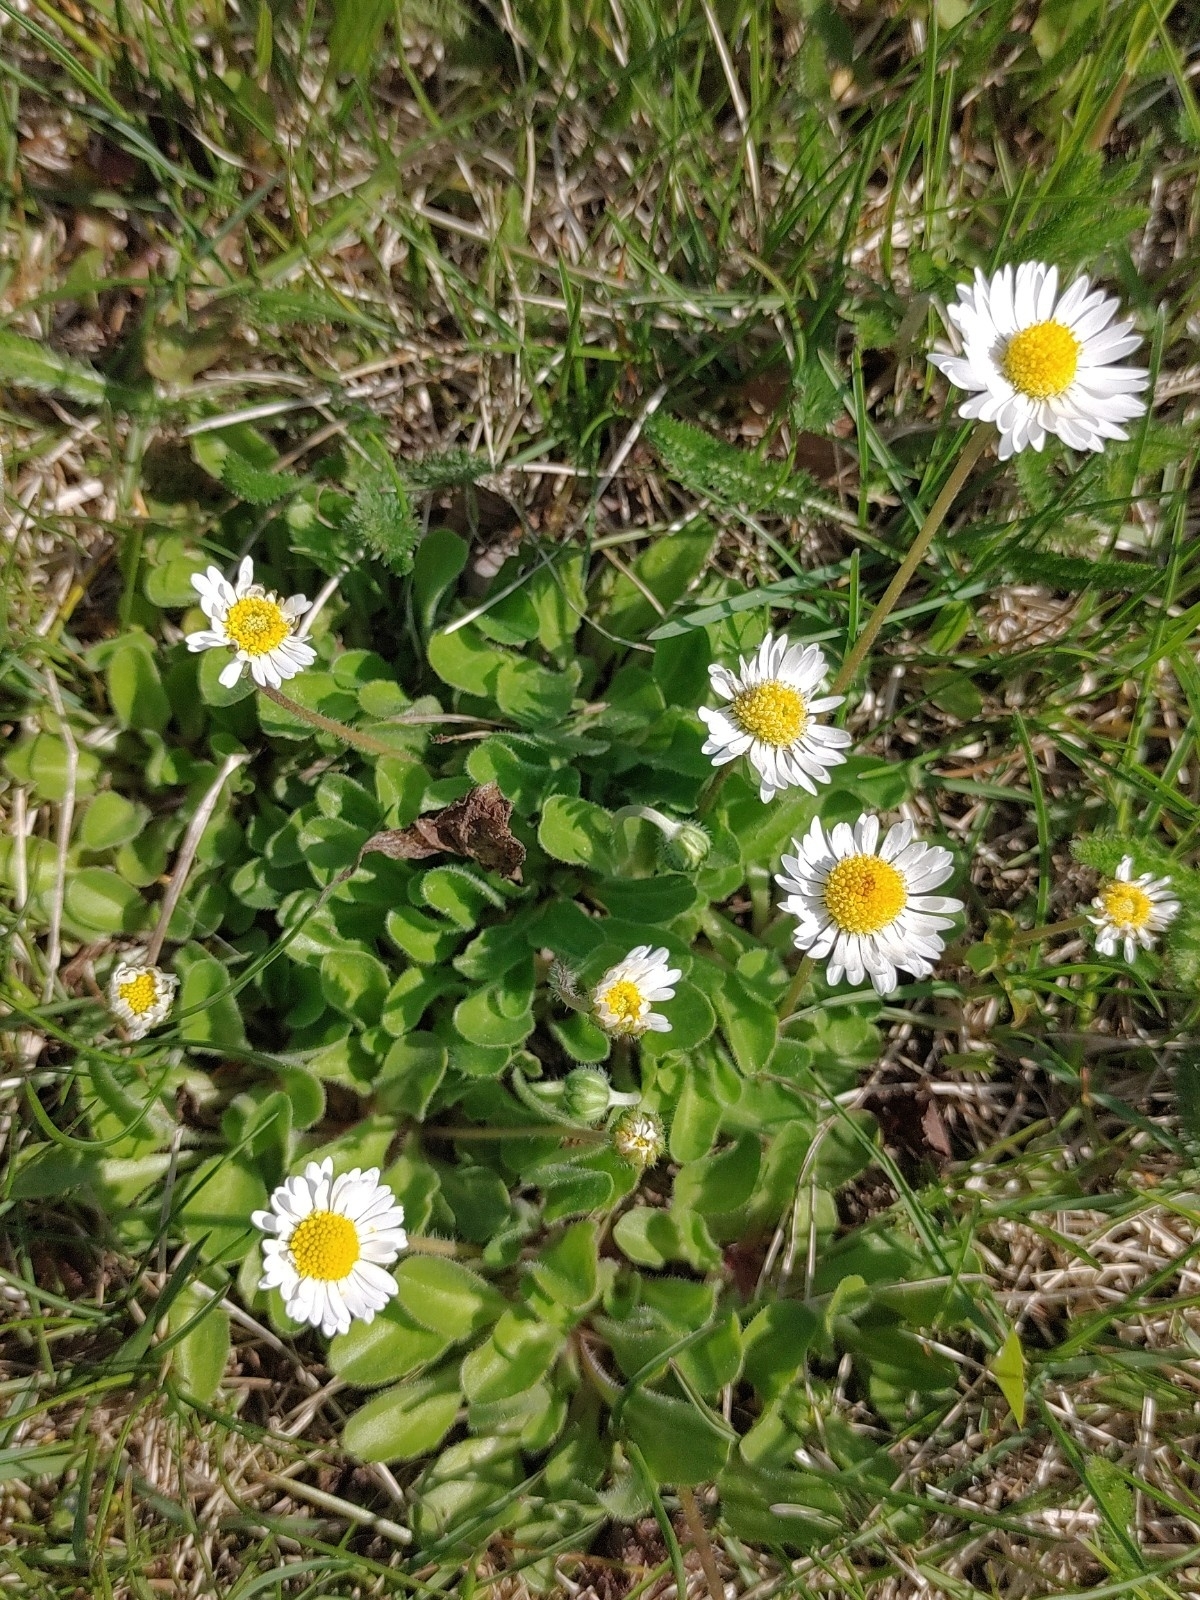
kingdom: Plantae
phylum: Tracheophyta
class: Magnoliopsida
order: Asterales
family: Asteraceae
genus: Bellis
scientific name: Bellis perennis
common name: Lawndaisy
